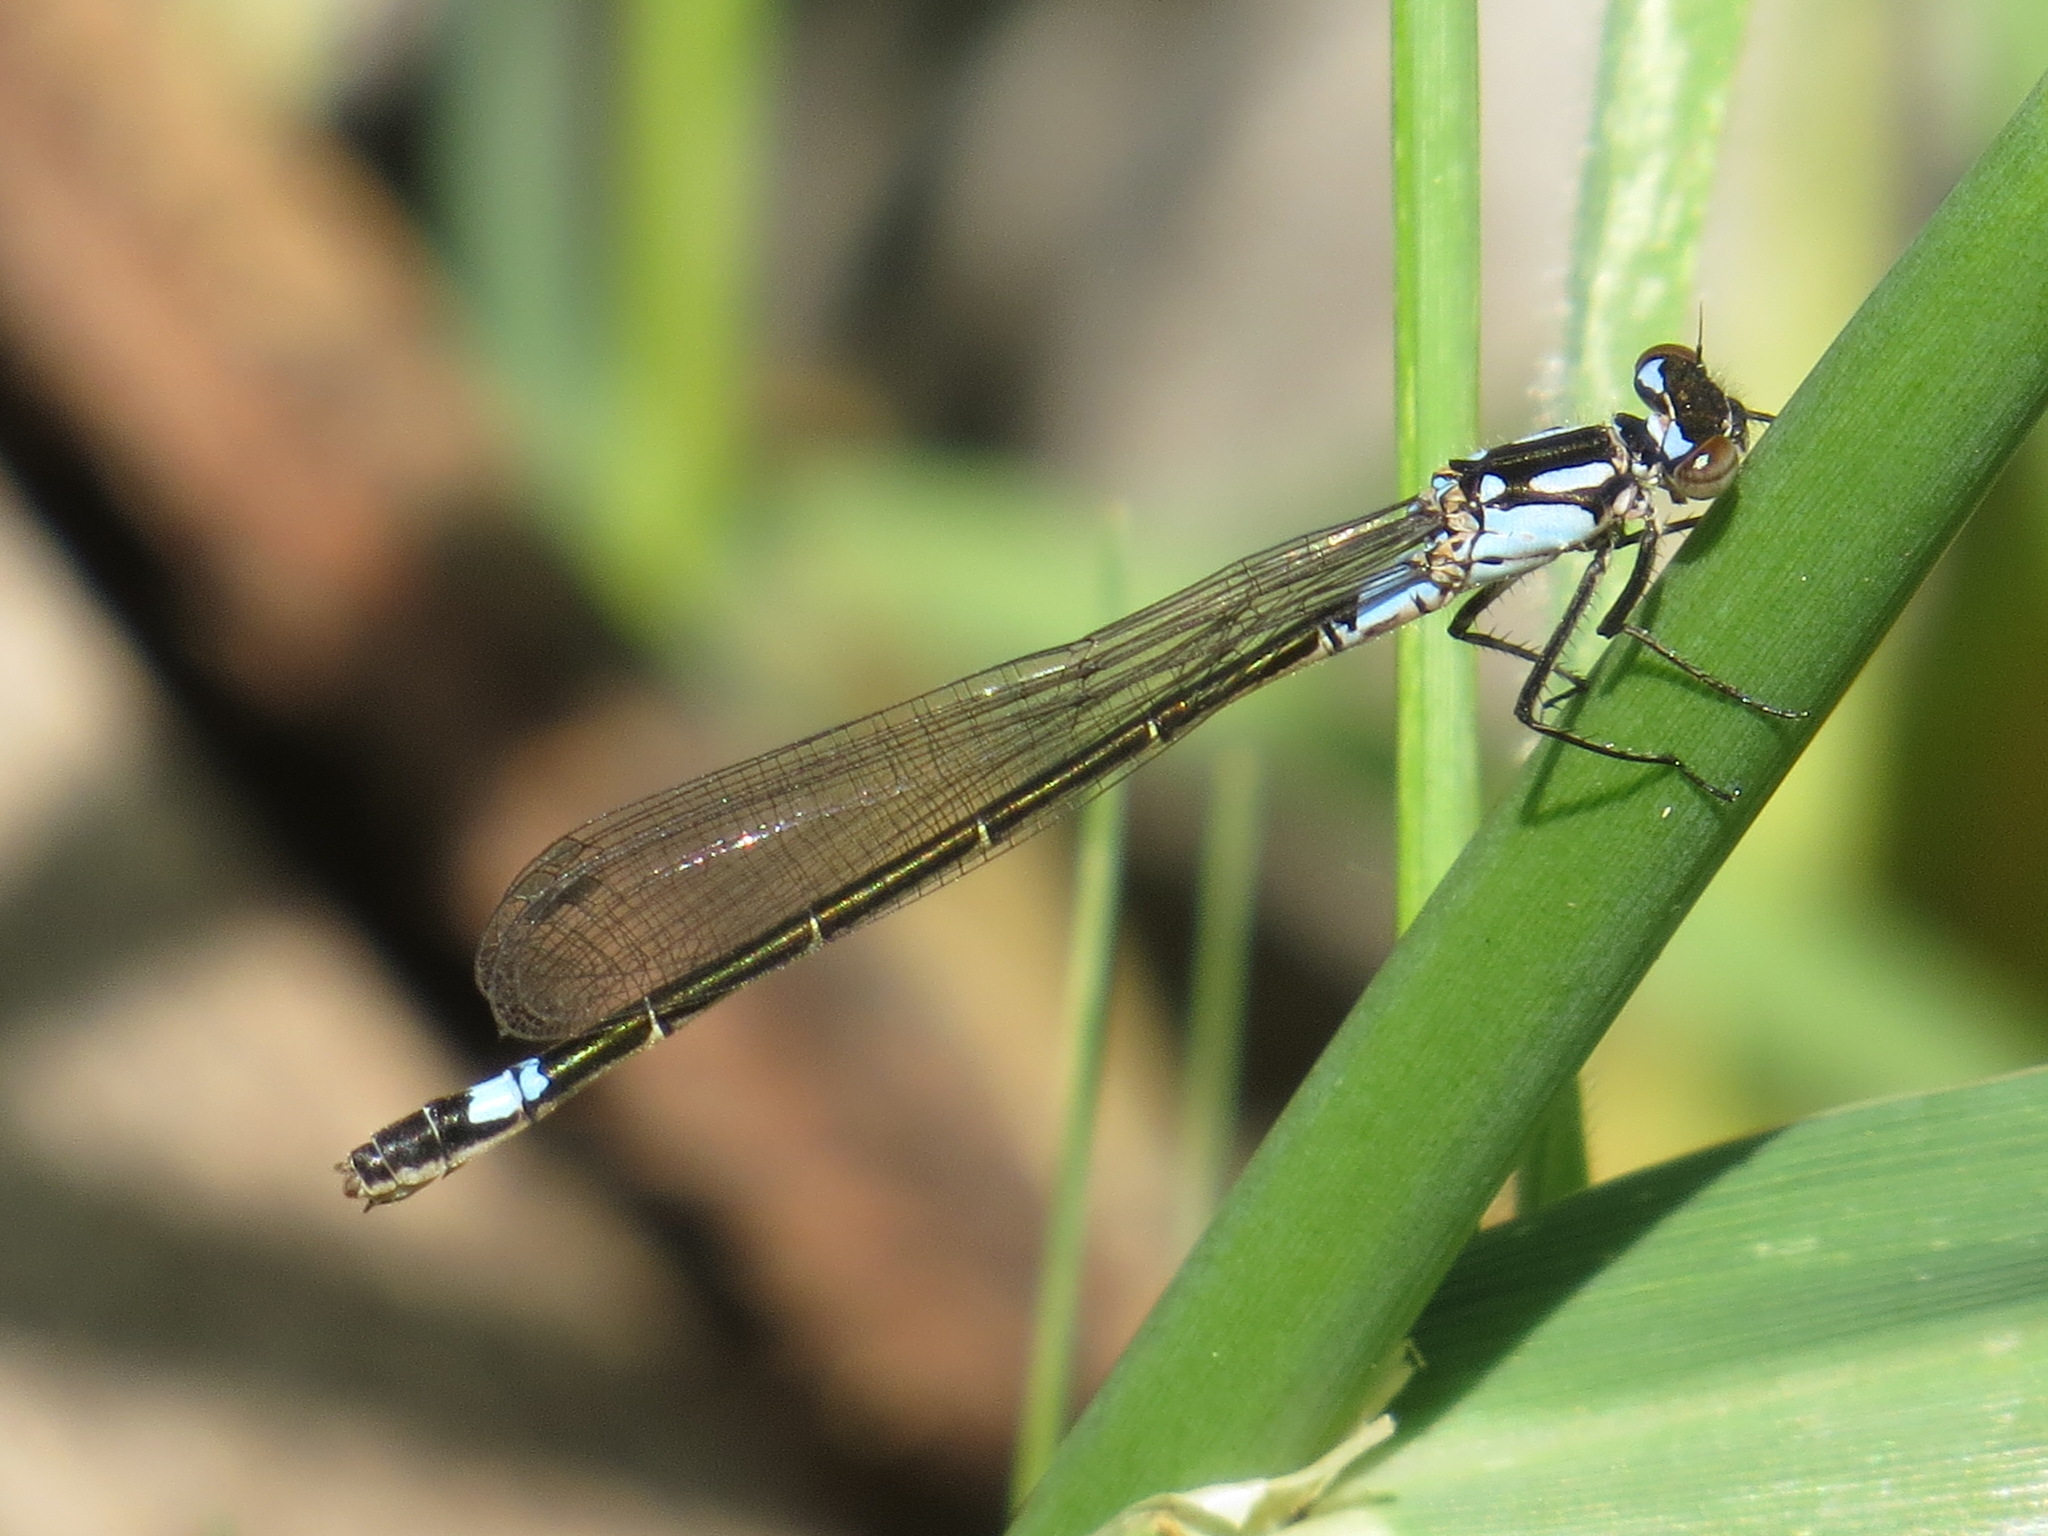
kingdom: Animalia
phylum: Arthropoda
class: Insecta
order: Odonata
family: Coenagrionidae
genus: Zoniagrion
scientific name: Zoniagrion exclamationis
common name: Exclamation damsel
